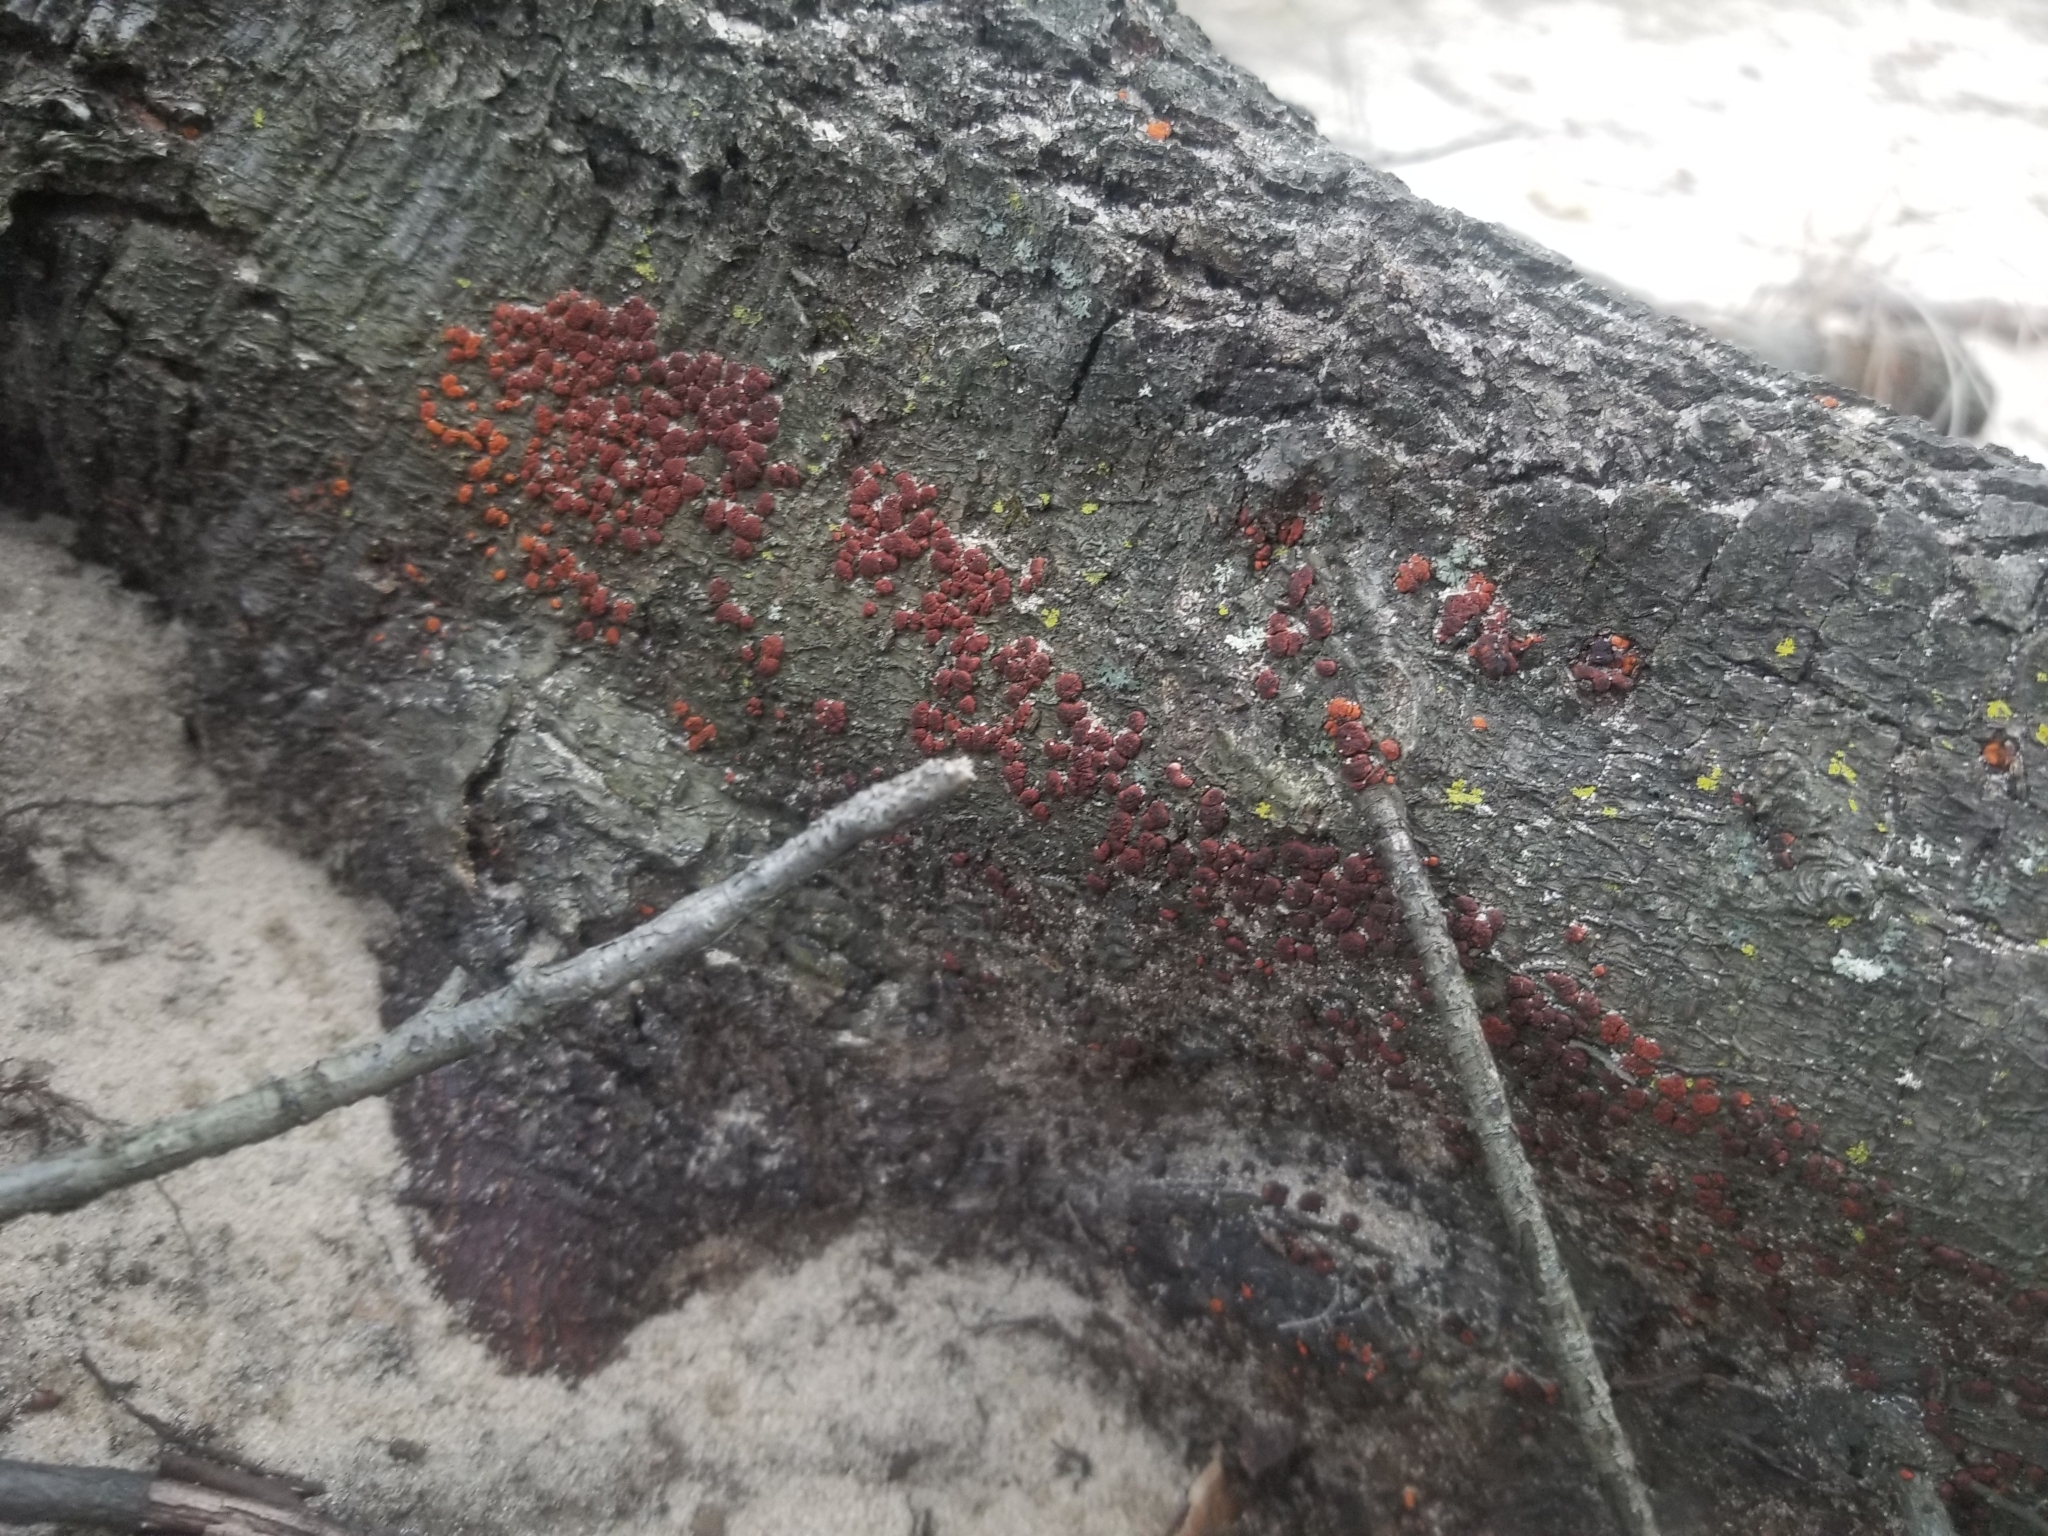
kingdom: Fungi
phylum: Basidiomycota
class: Agaricomycetes
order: Russulales
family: Peniophoraceae
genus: Peniophora
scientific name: Peniophora rufa
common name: Red tree brain fungus
